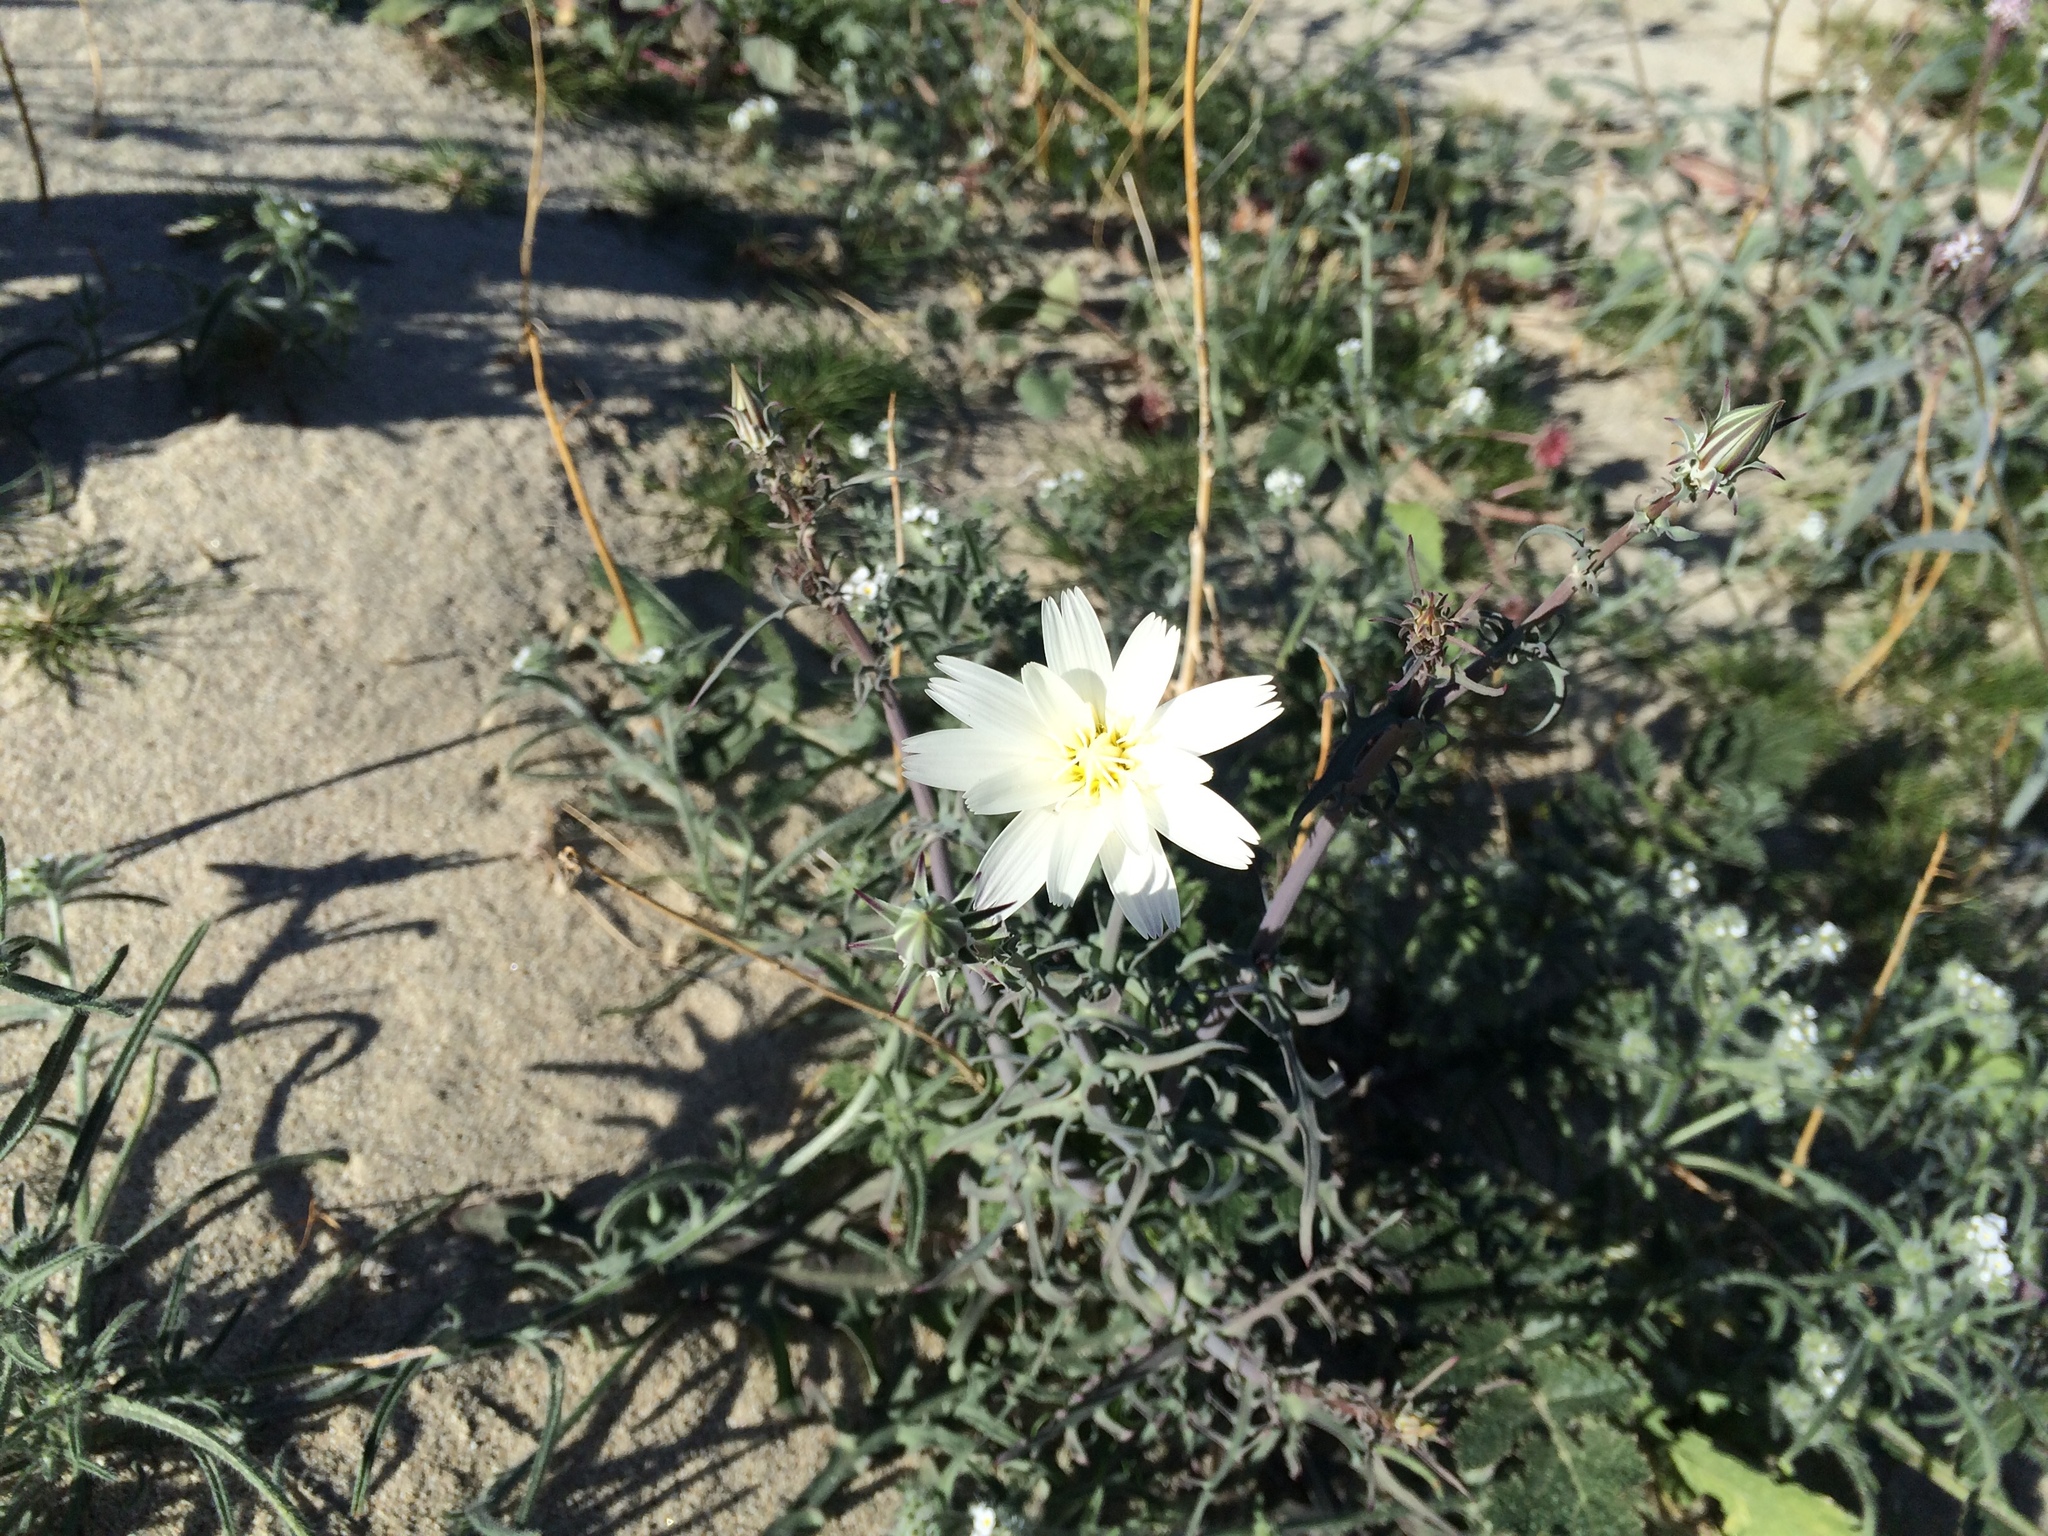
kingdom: Plantae
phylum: Tracheophyta
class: Magnoliopsida
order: Asterales
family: Asteraceae
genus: Rafinesquia
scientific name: Rafinesquia neomexicana
